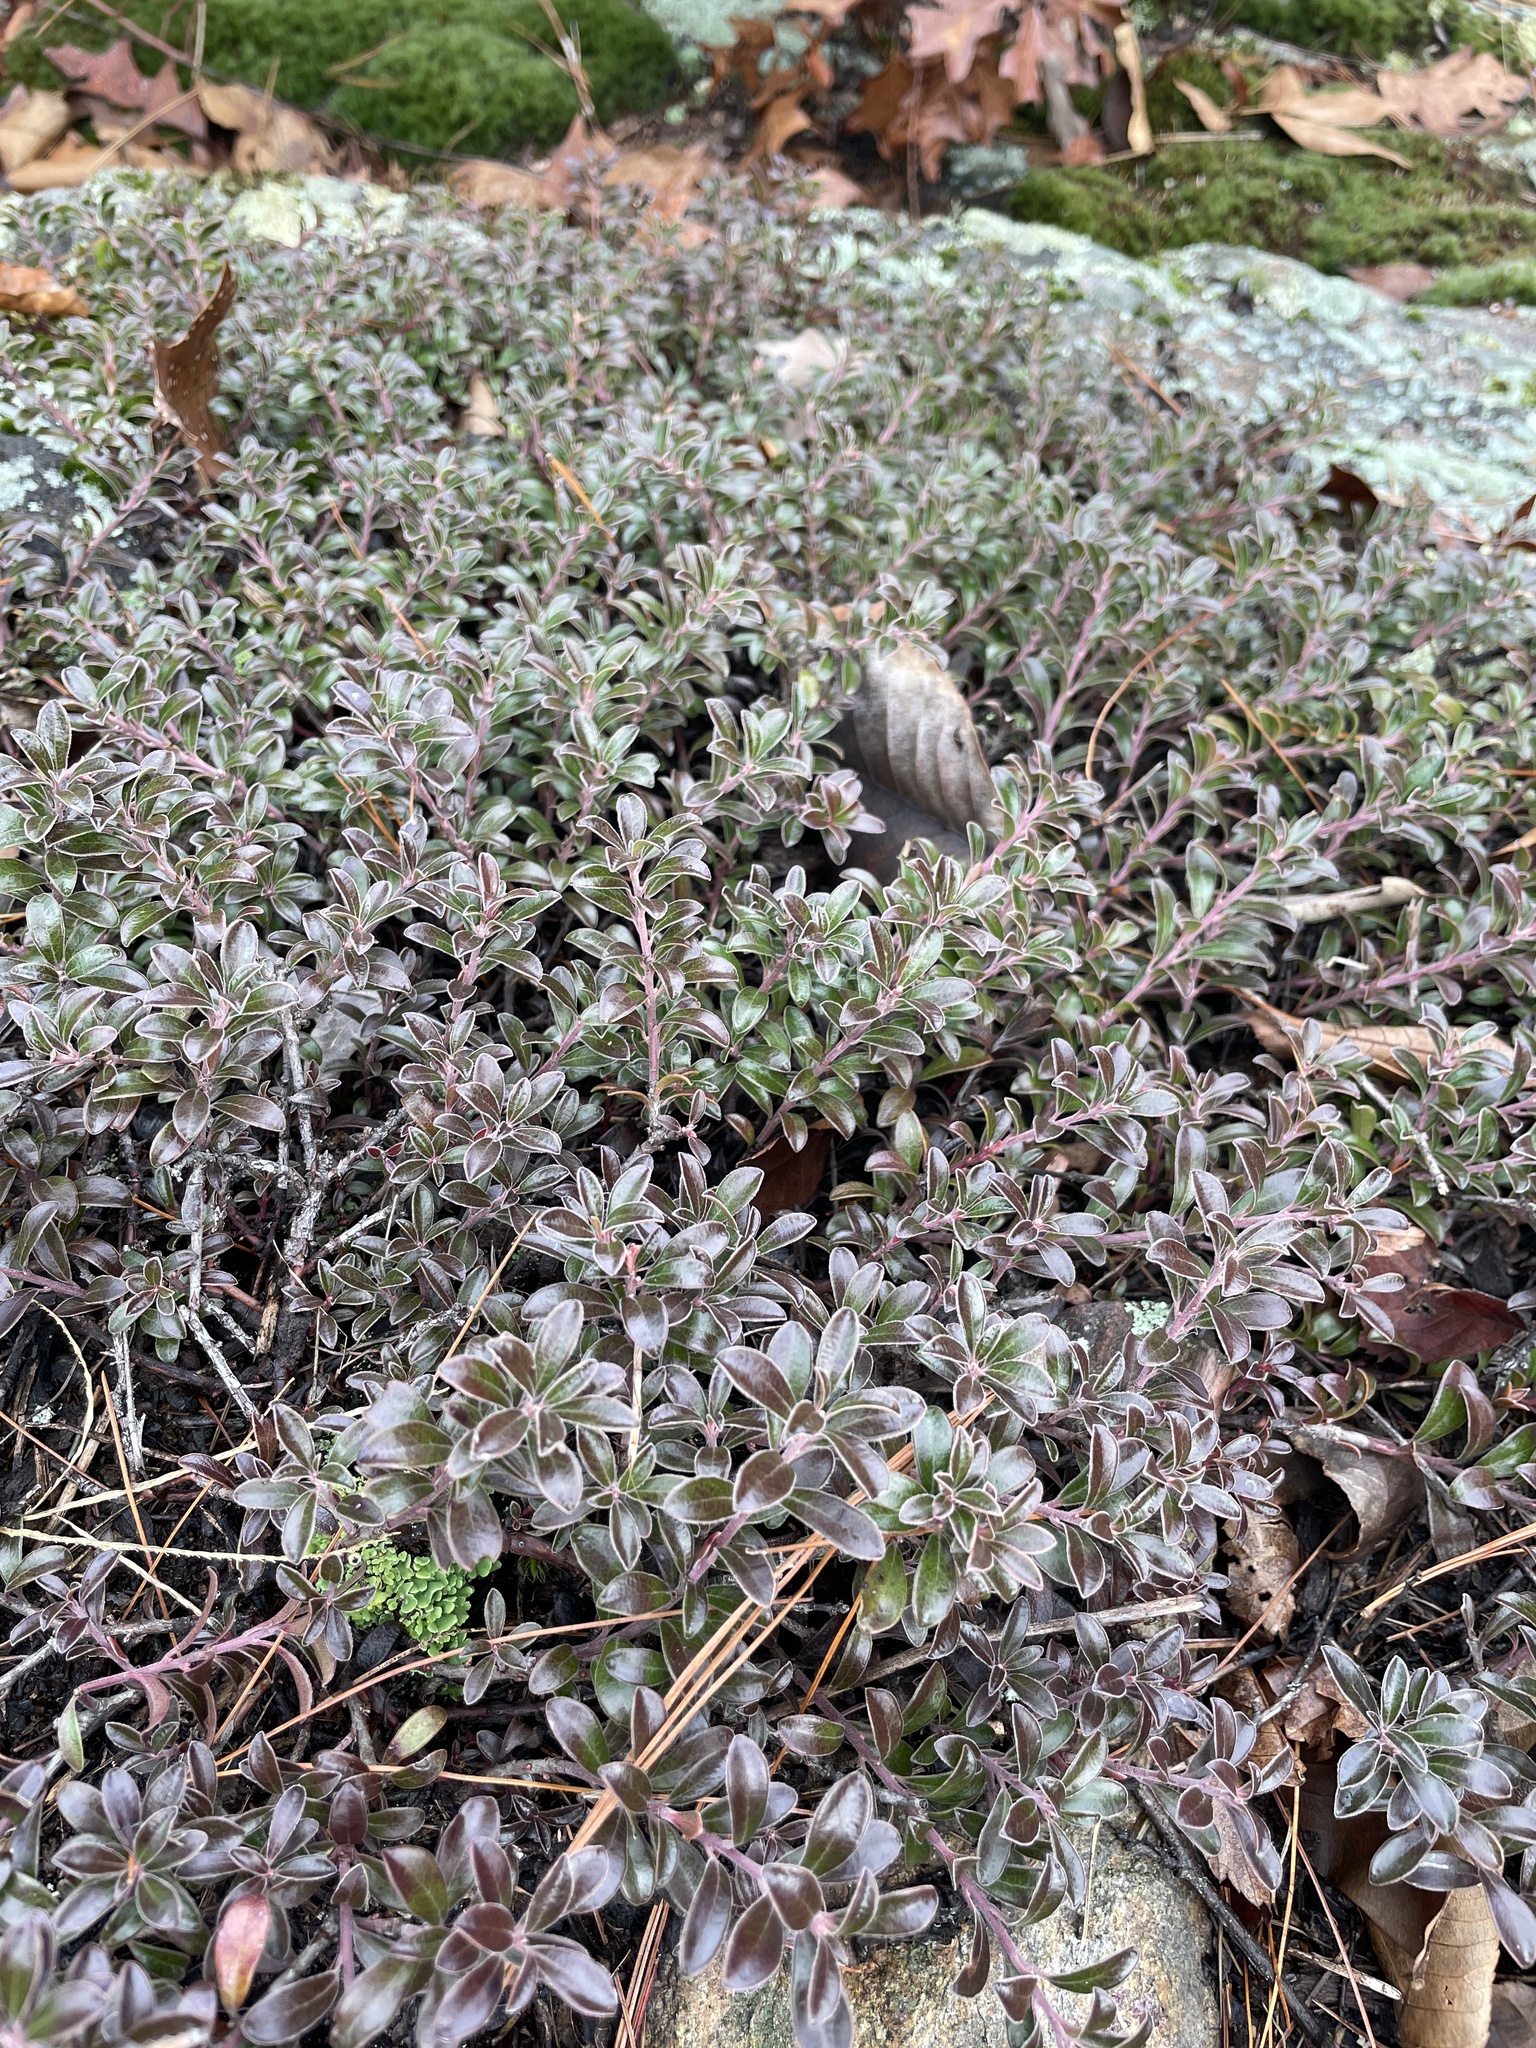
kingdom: Plantae
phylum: Tracheophyta
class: Magnoliopsida
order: Ericales
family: Ericaceae
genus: Arctostaphylos
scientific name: Arctostaphylos uva-ursi
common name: Bearberry
